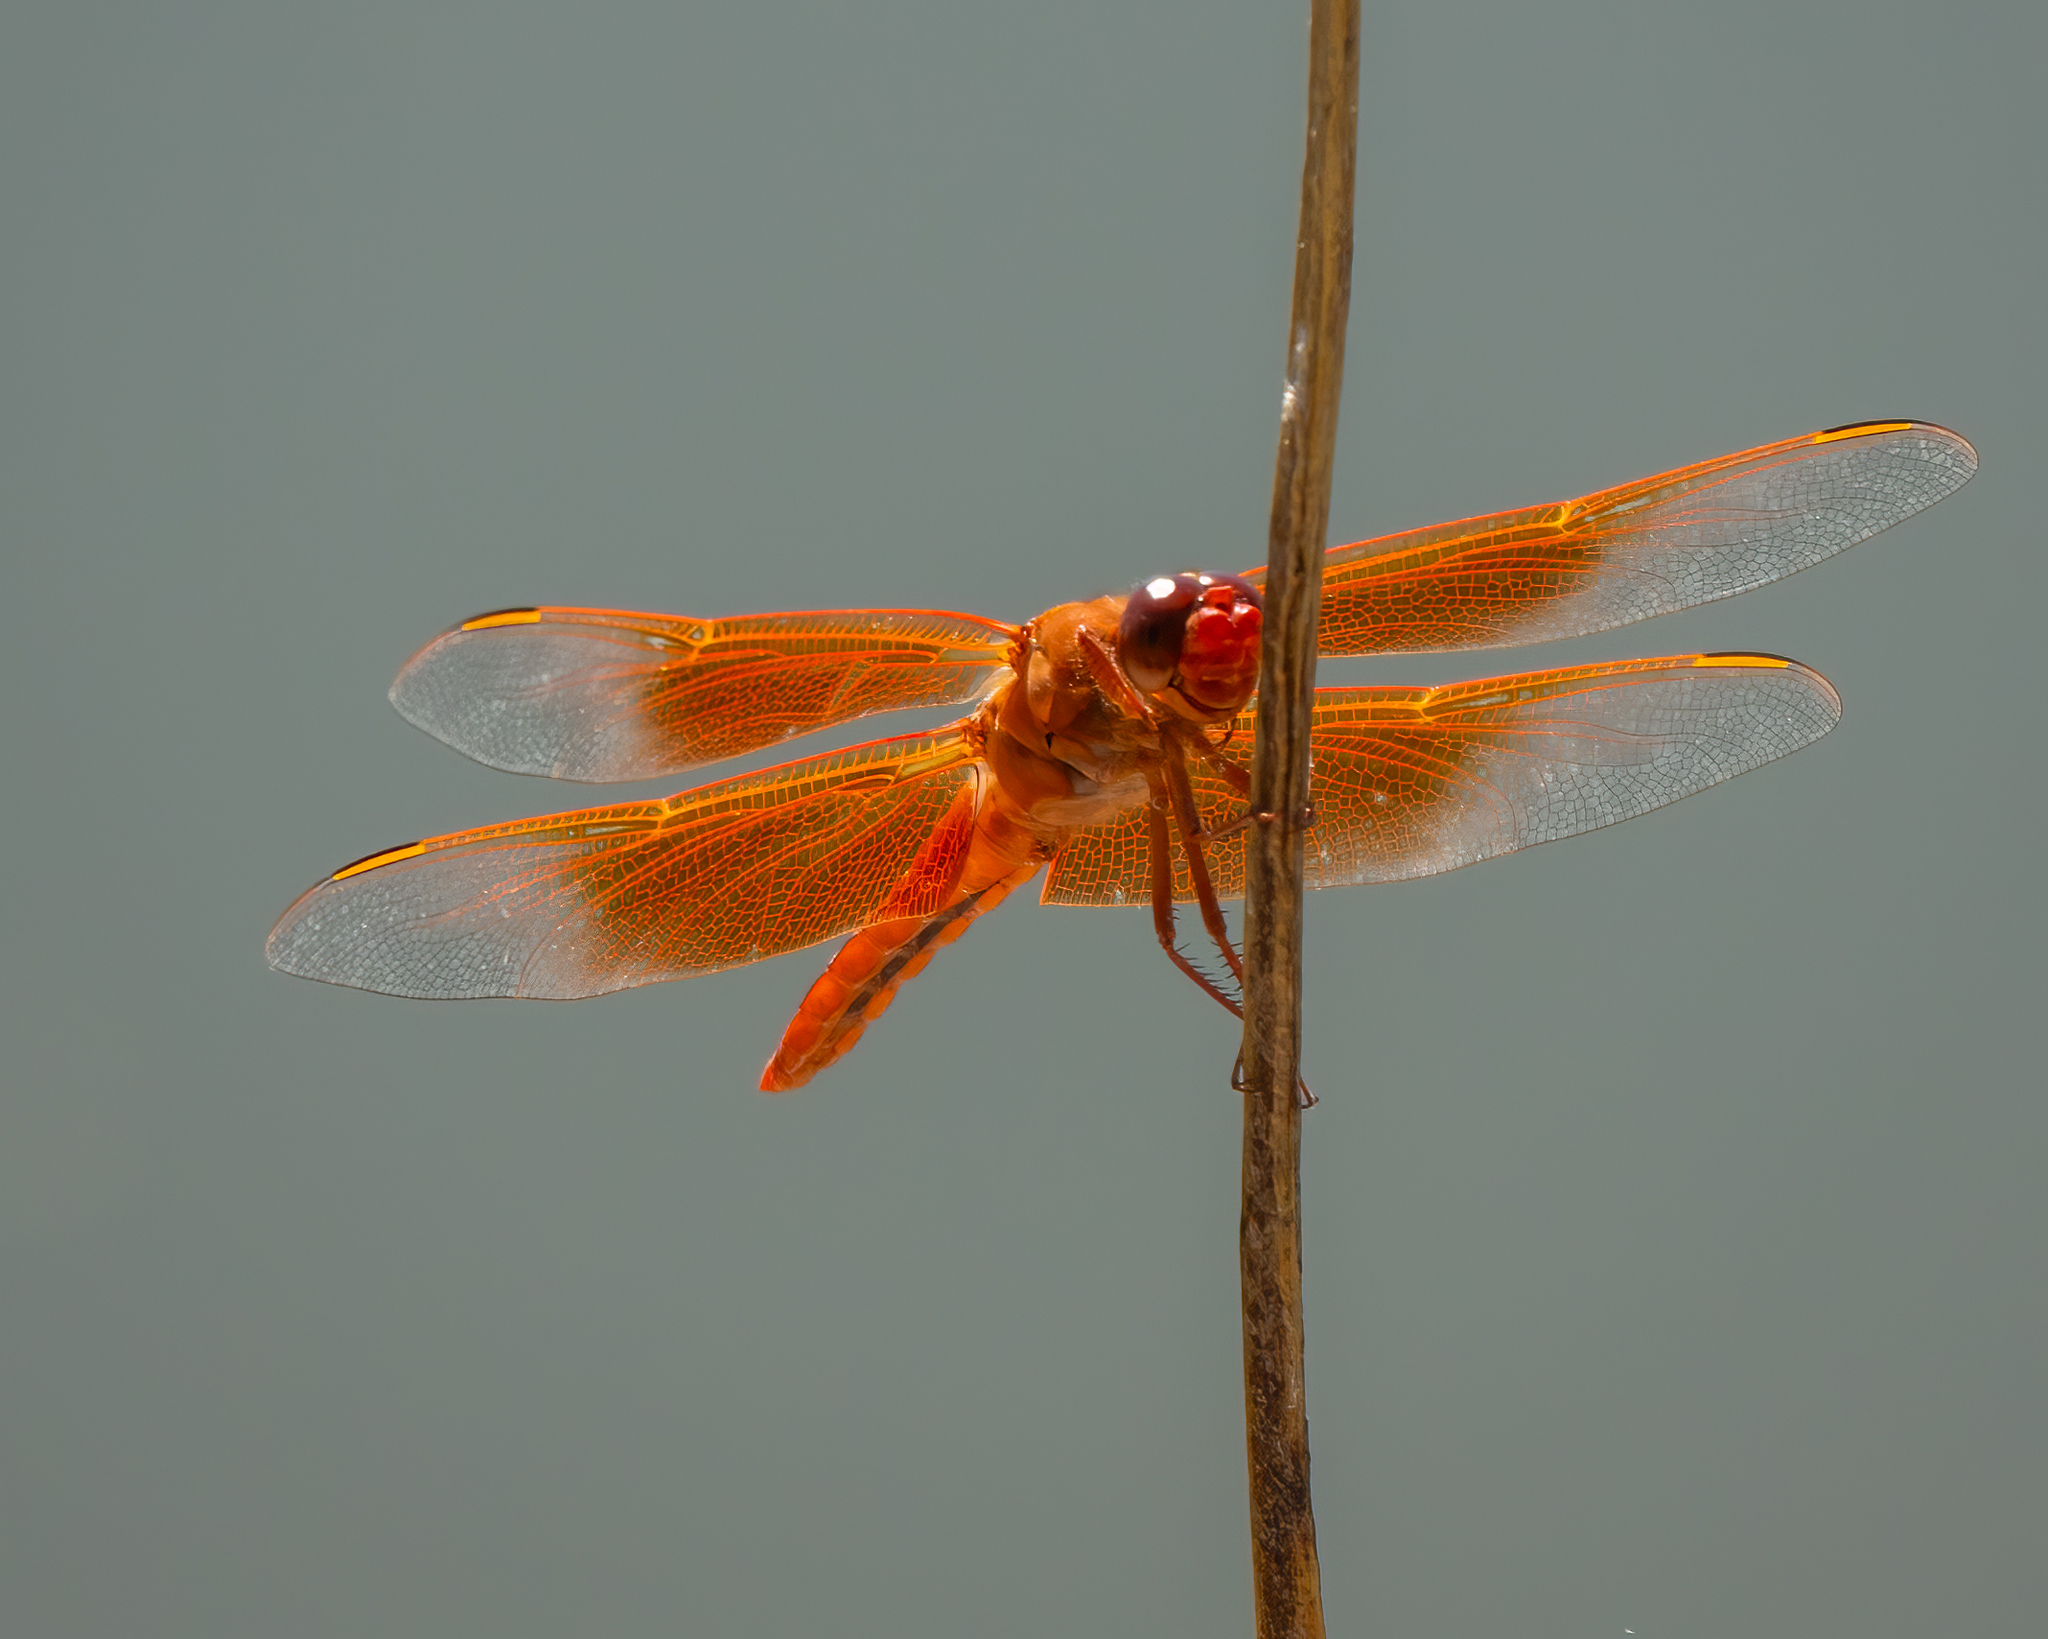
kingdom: Animalia
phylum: Arthropoda
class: Insecta
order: Odonata
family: Libellulidae
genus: Libellula
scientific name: Libellula saturata
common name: Flame skimmer
